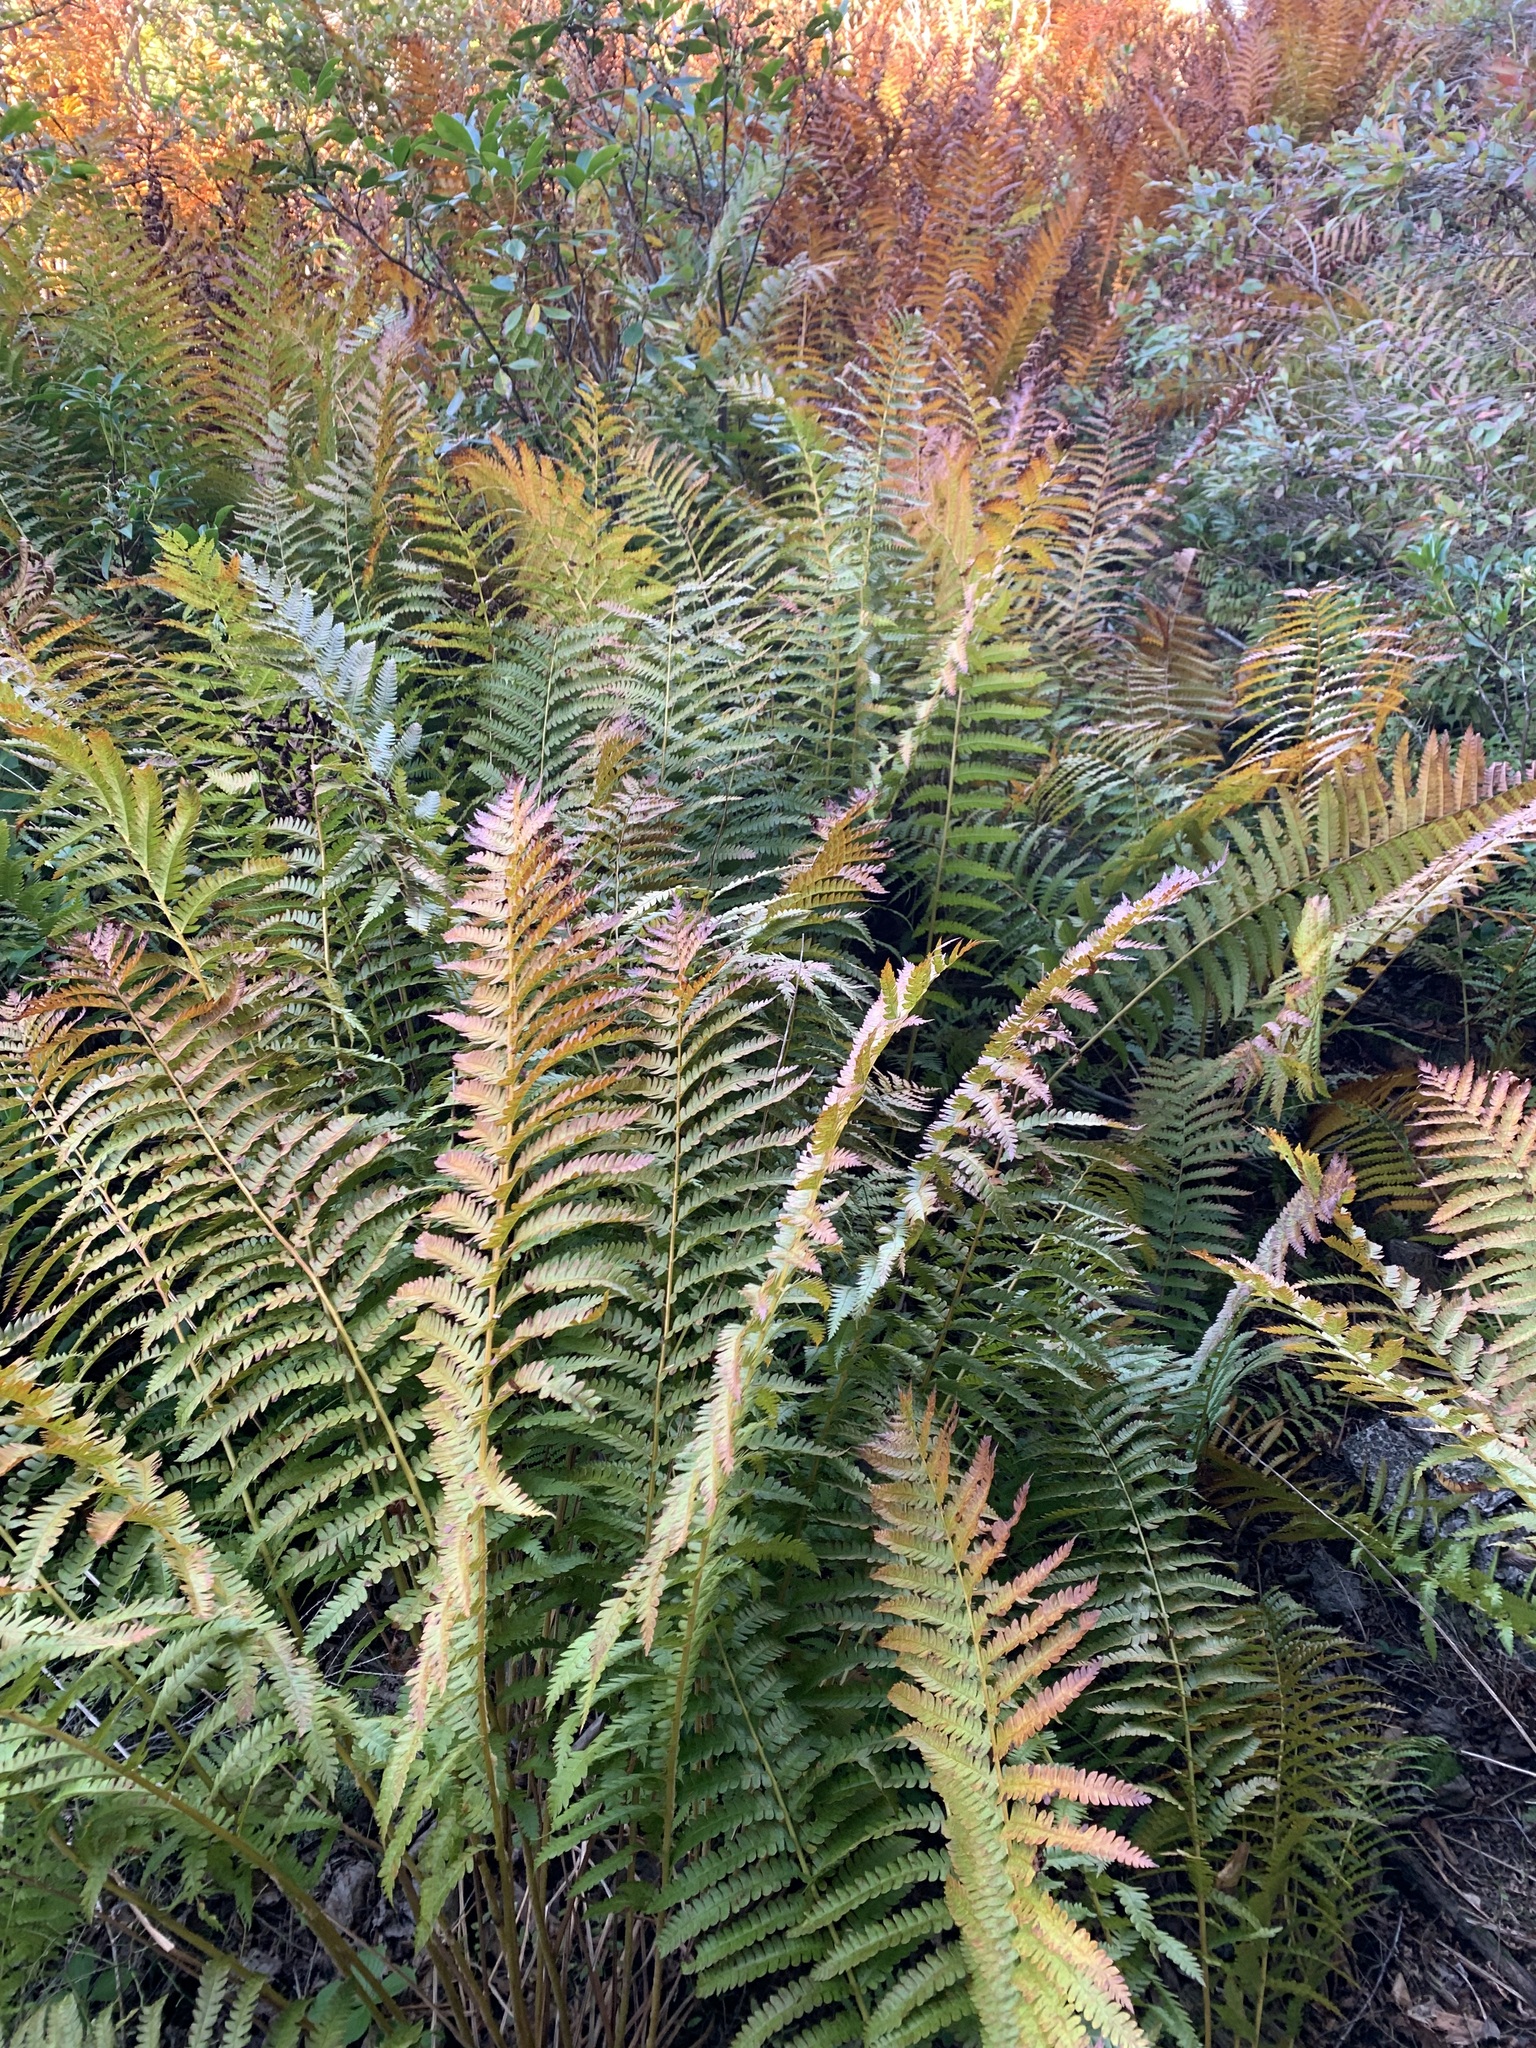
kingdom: Plantae
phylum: Tracheophyta
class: Polypodiopsida
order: Osmundales
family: Osmundaceae
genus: Osmundastrum
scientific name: Osmundastrum cinnamomeum
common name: Cinnamon fern
